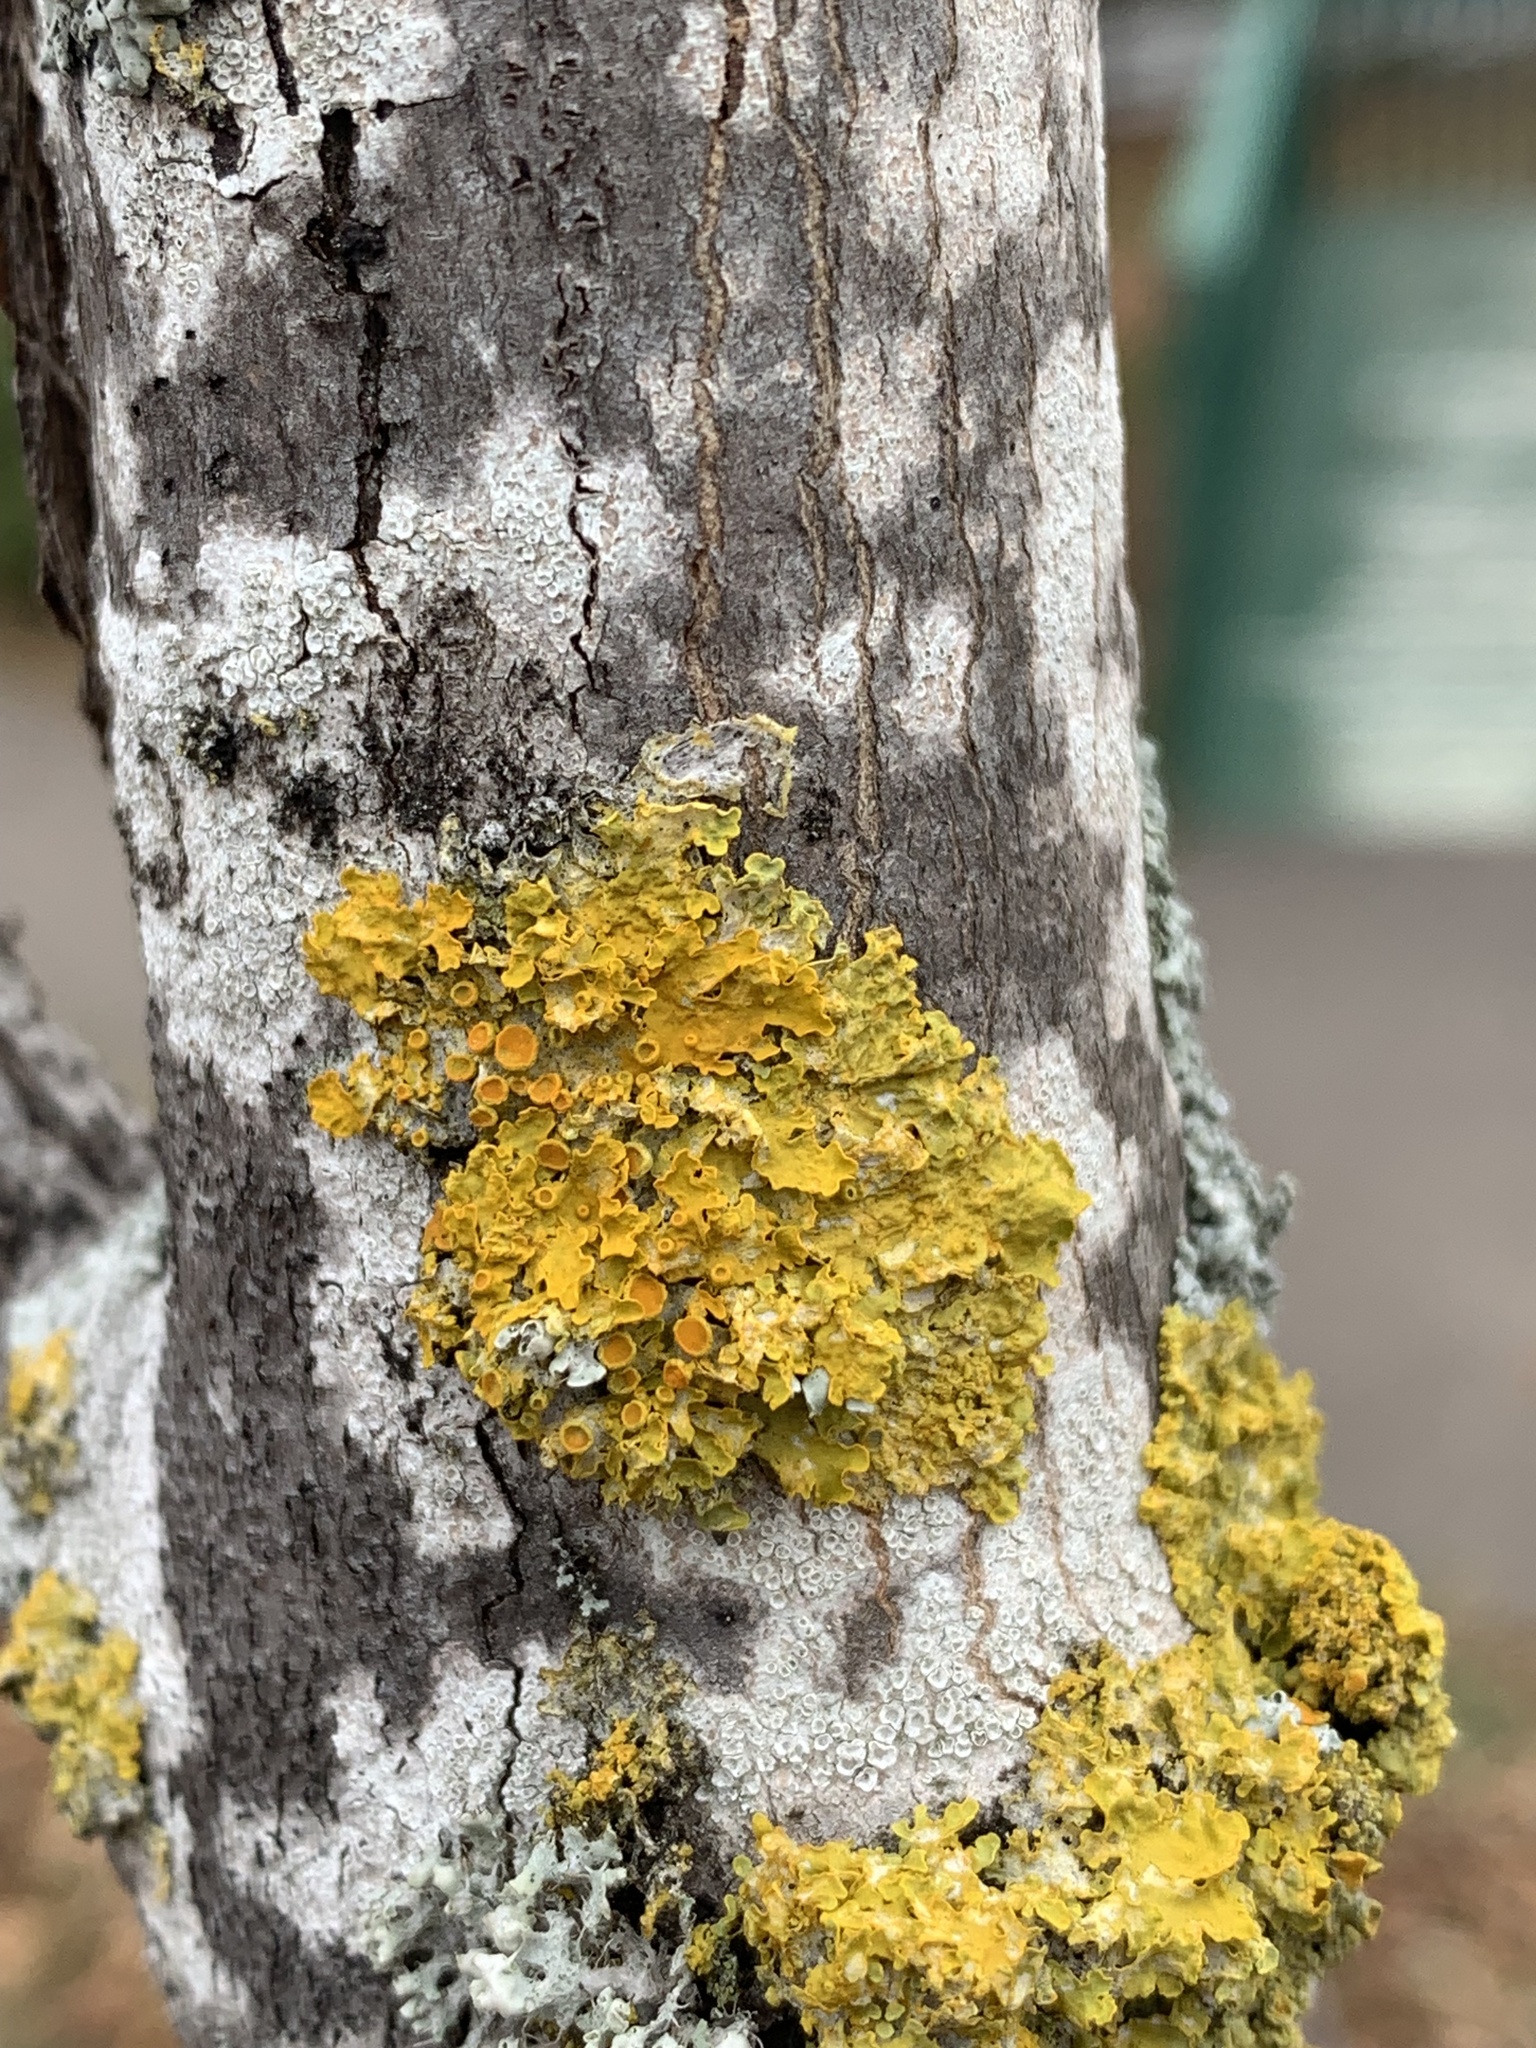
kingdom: Fungi
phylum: Ascomycota
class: Lecanoromycetes
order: Teloschistales
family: Teloschistaceae
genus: Xanthoria
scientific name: Xanthoria parietina
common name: Common orange lichen
